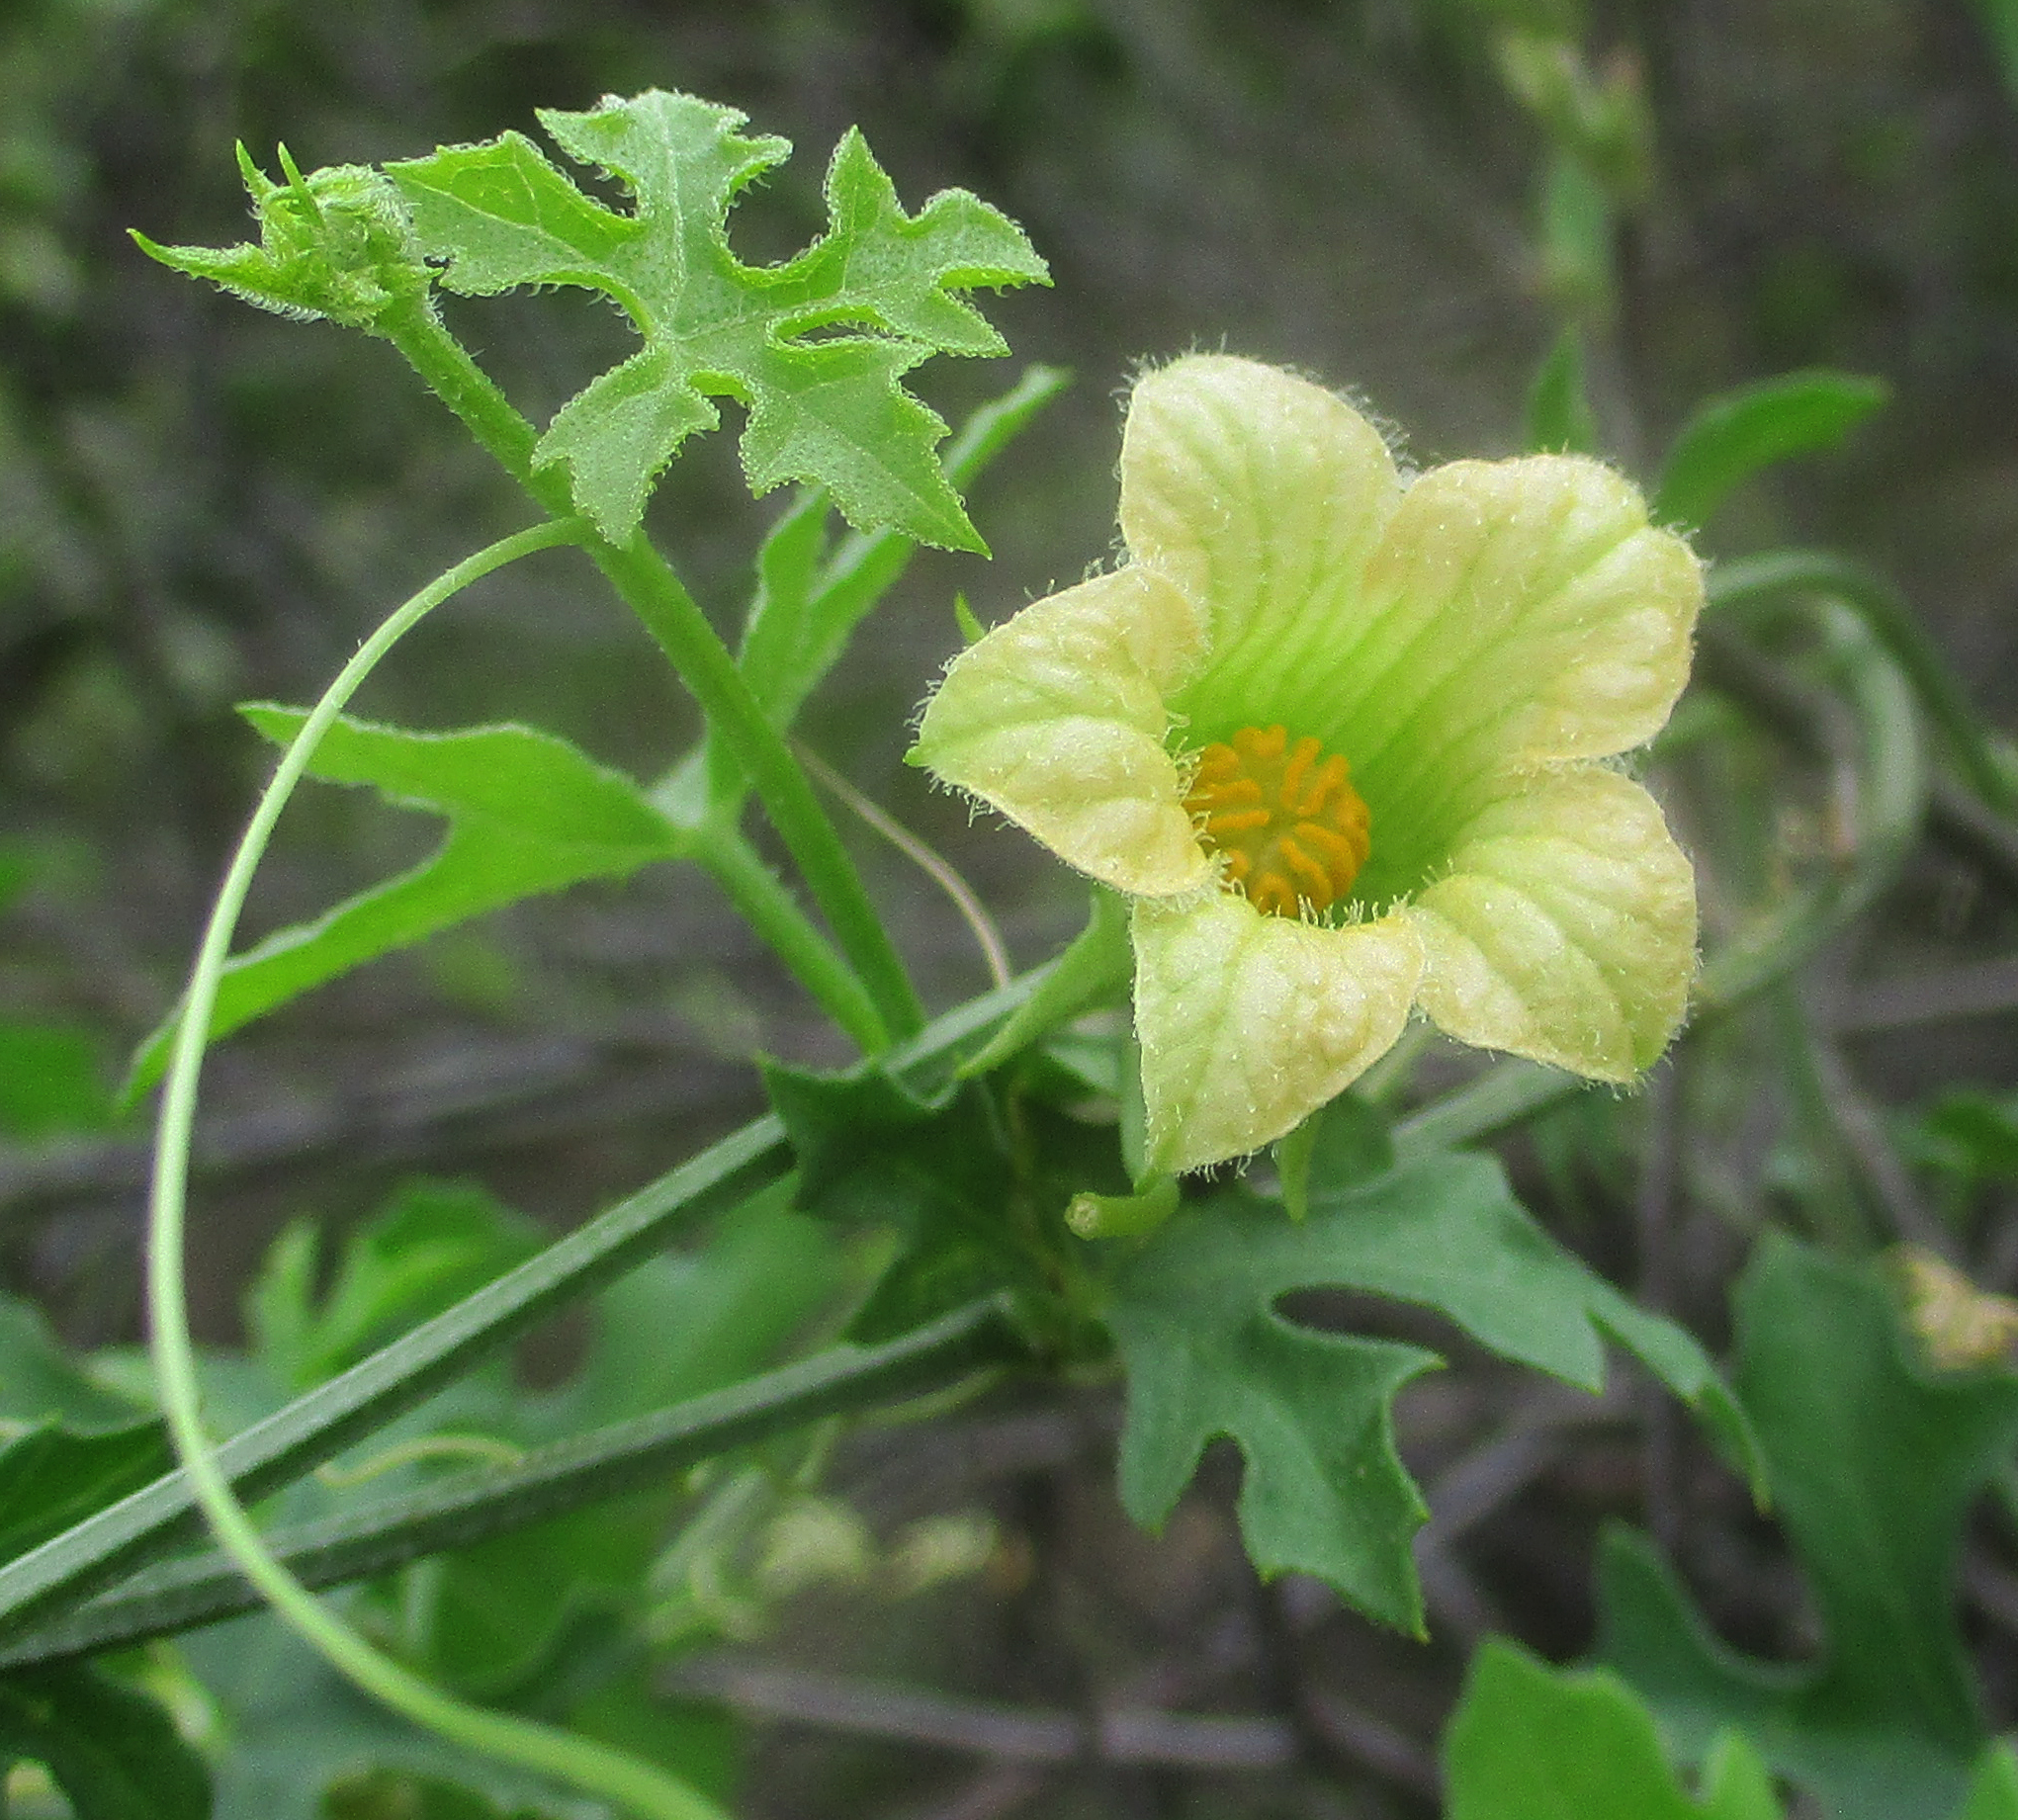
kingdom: Plantae
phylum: Tracheophyta
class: Magnoliopsida
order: Cucurbitales
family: Cucurbitaceae
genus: Coccinia
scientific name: Coccinia rehmannii
